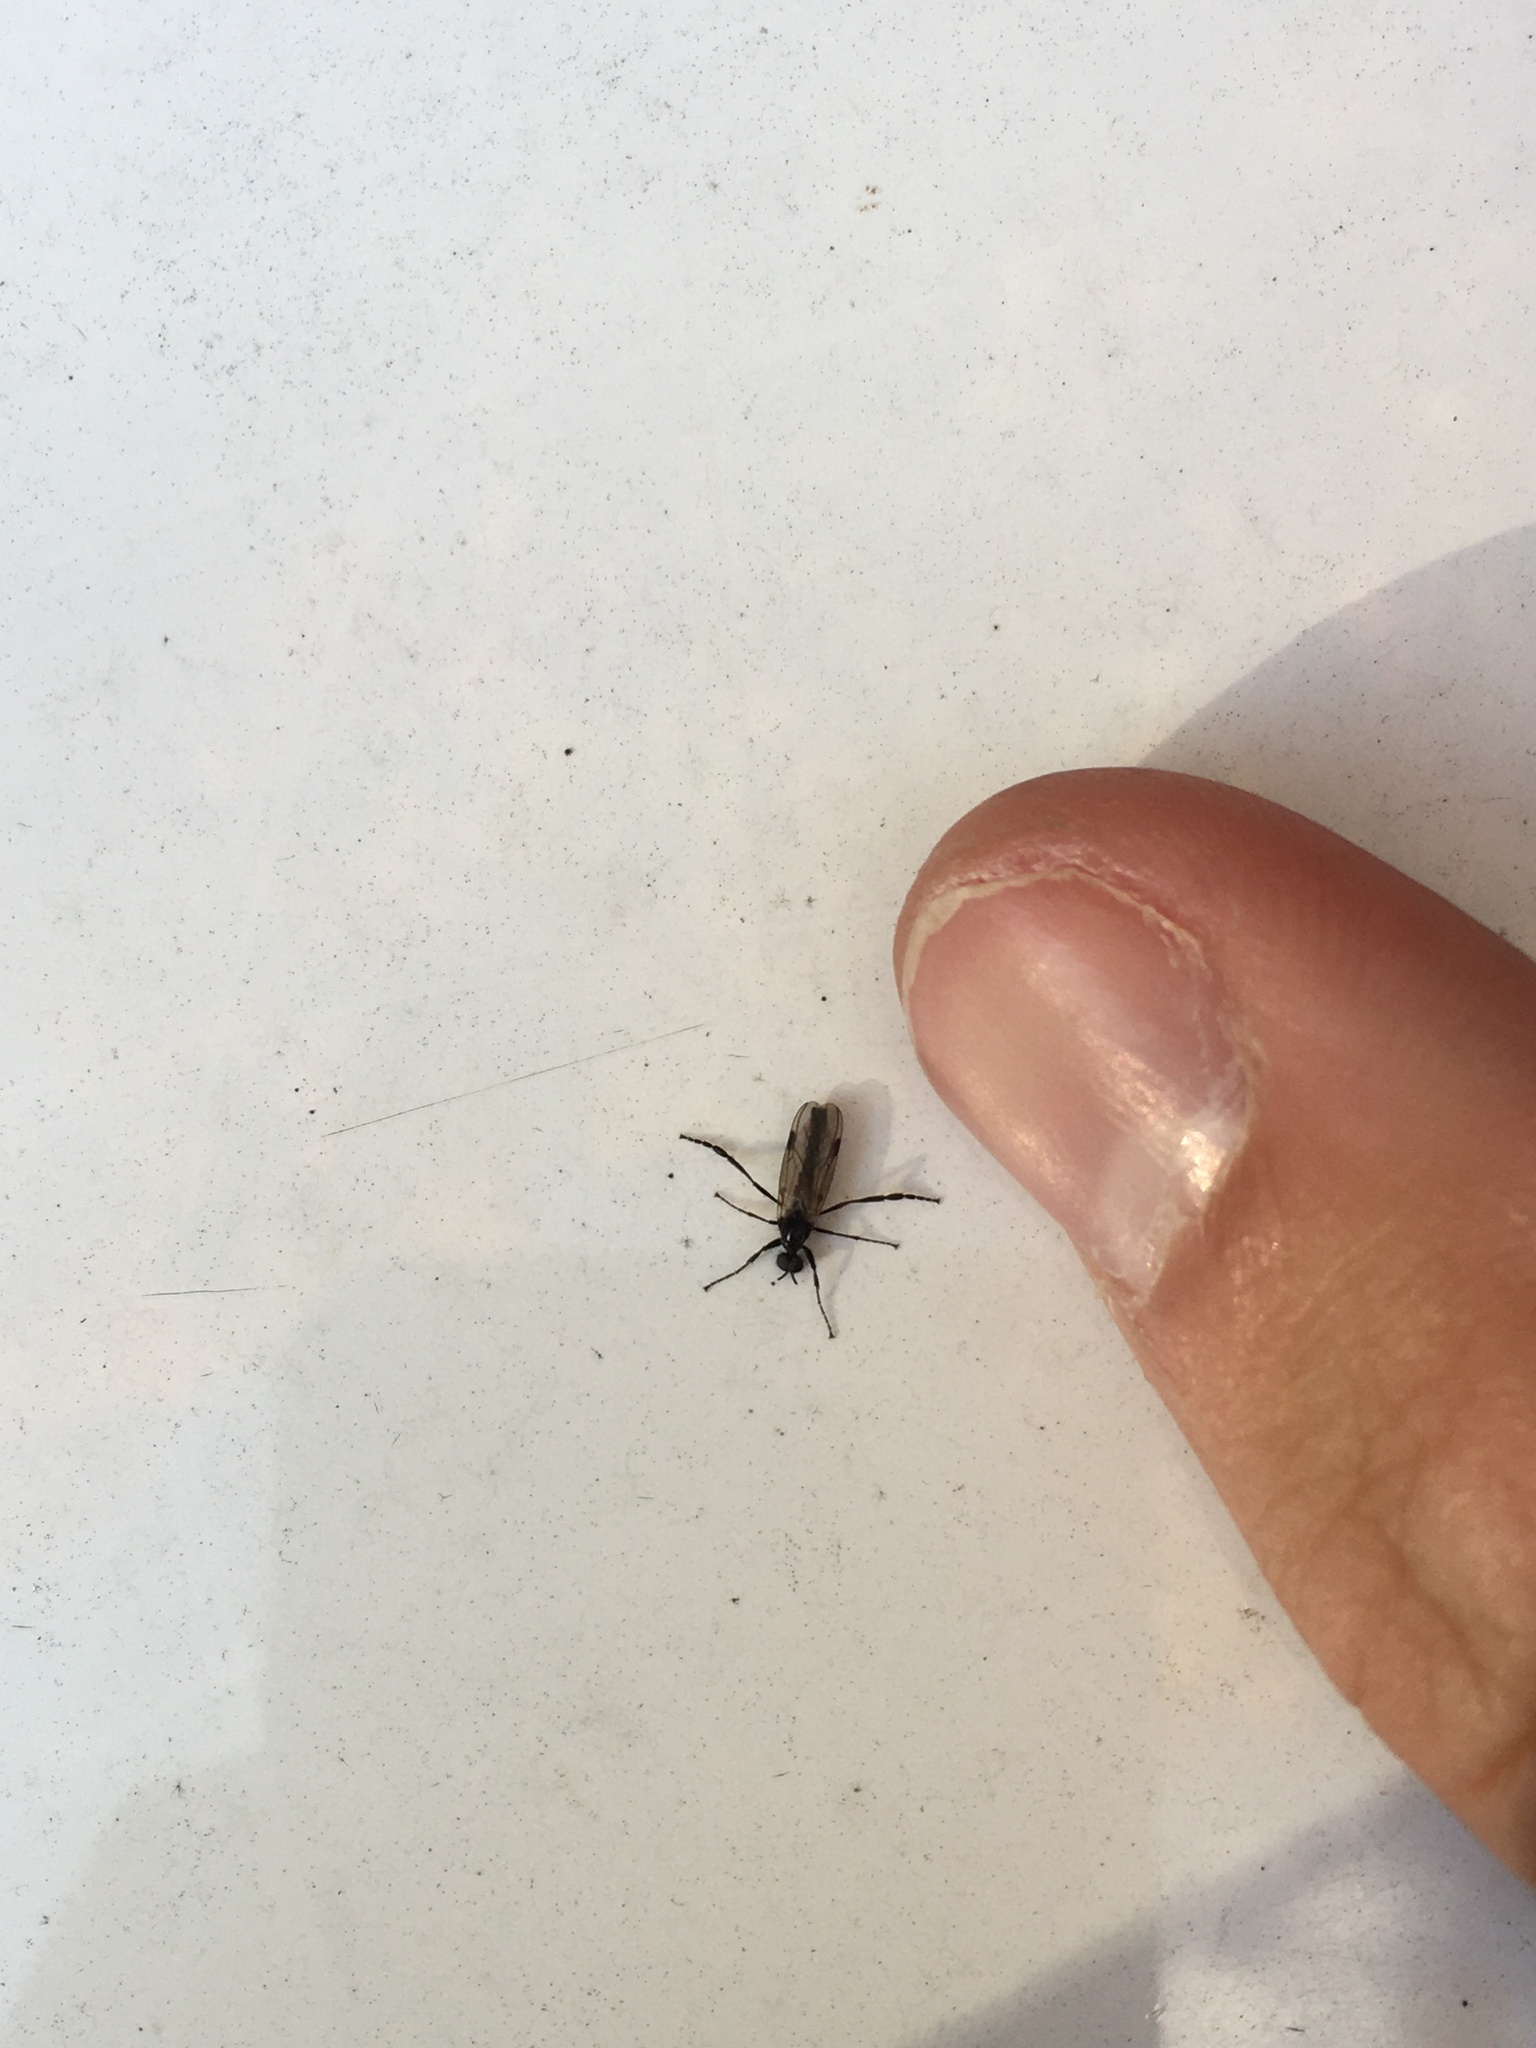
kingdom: Animalia
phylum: Arthropoda
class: Insecta
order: Diptera
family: Bibionidae
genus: Bibio
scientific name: Bibio
